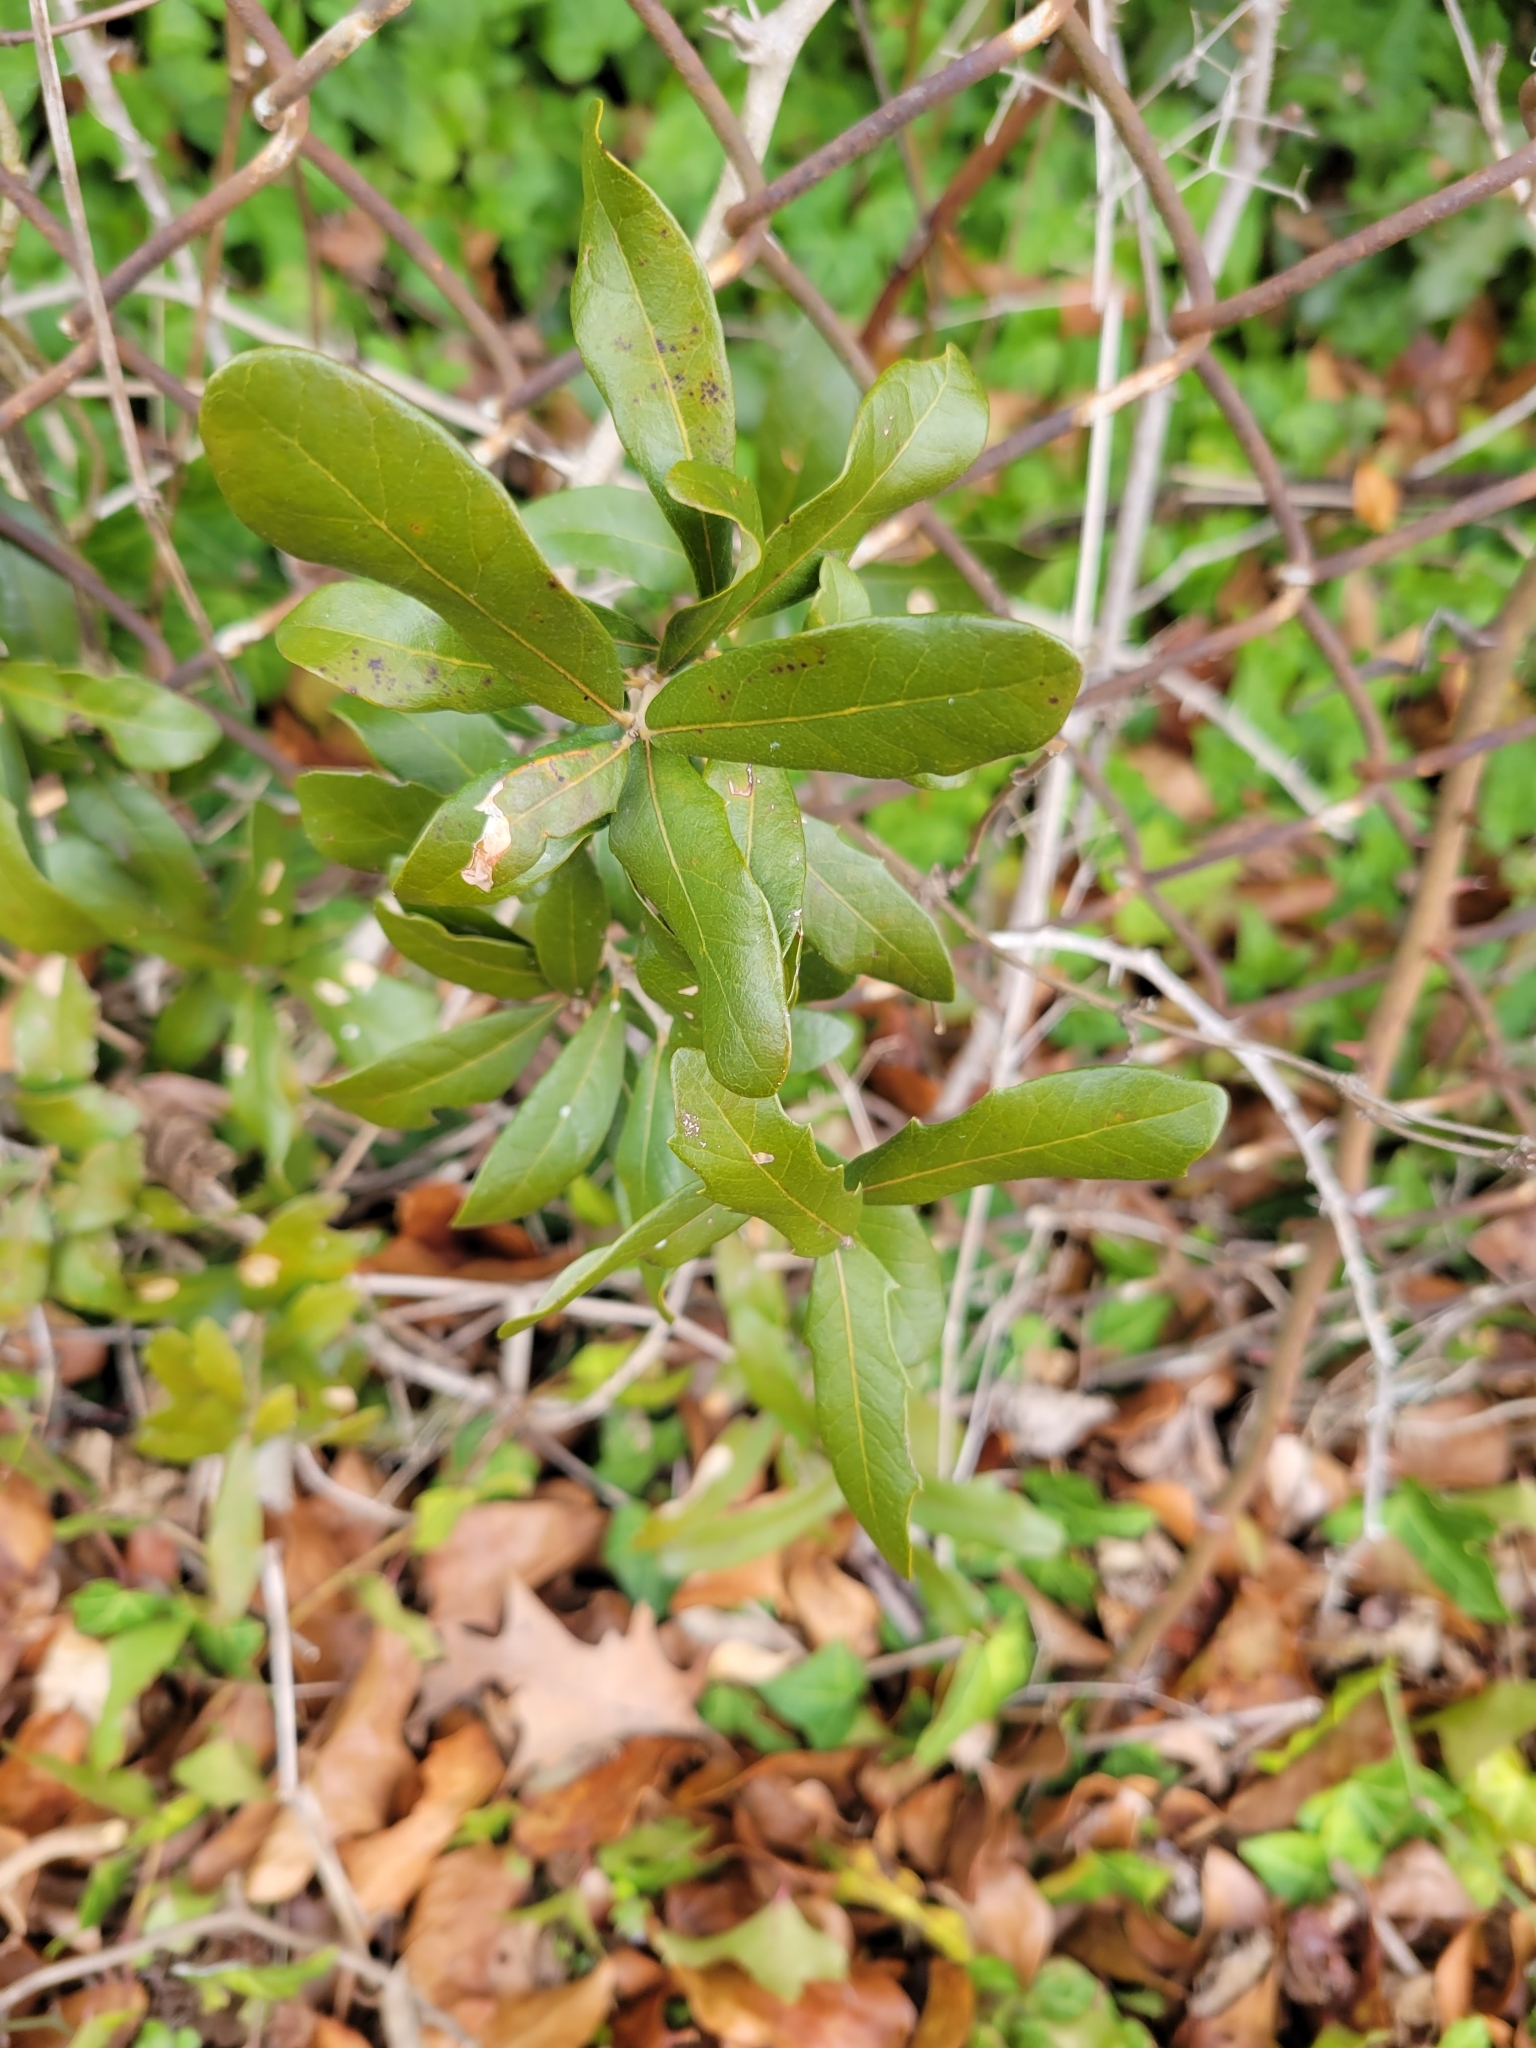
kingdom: Plantae
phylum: Tracheophyta
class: Magnoliopsida
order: Fagales
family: Fagaceae
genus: Quercus
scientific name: Quercus virginiana
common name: Southern live oak
